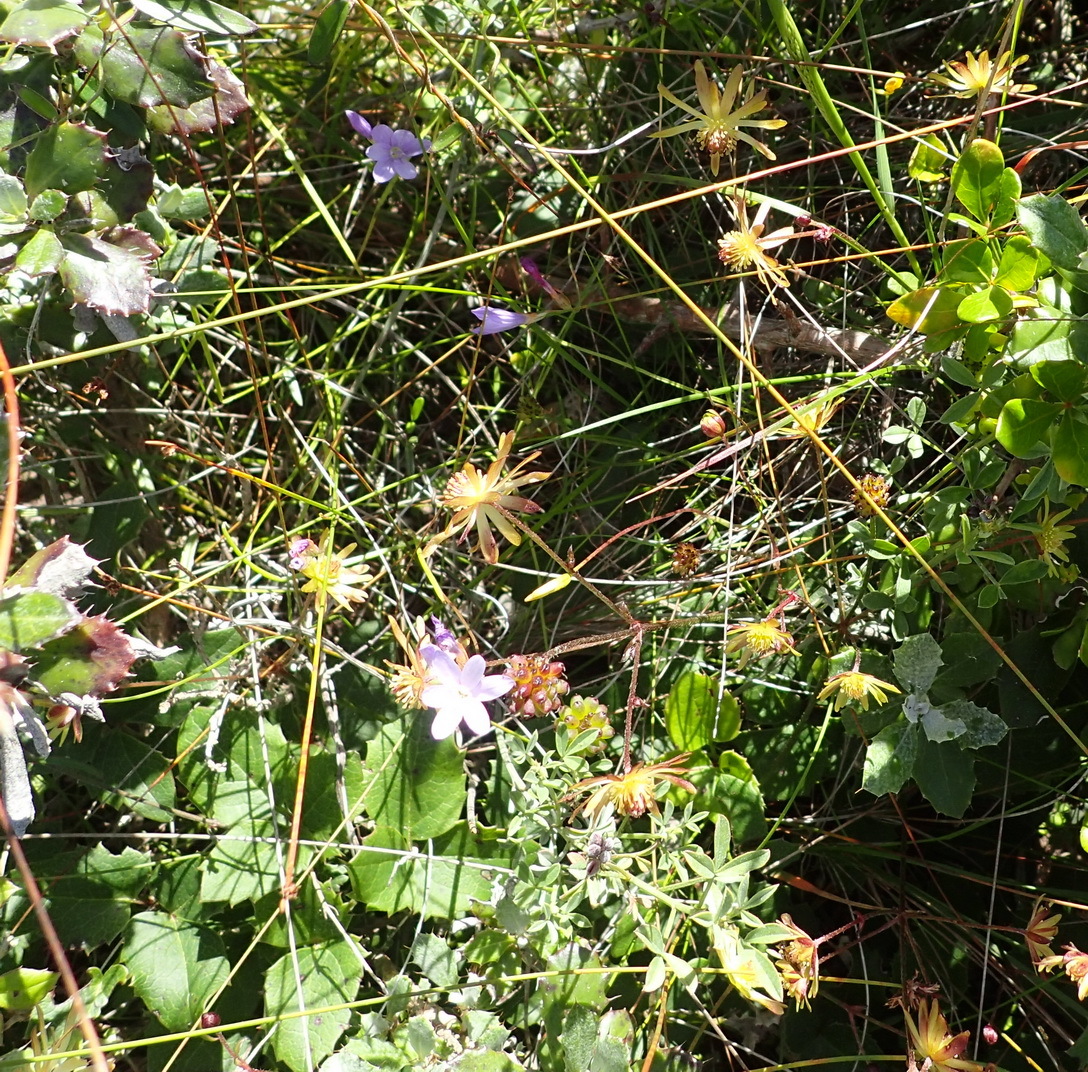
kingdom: Plantae
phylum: Tracheophyta
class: Magnoliopsida
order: Ranunculales
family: Ranunculaceae
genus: Knowltonia
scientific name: Knowltonia vesicatoria
